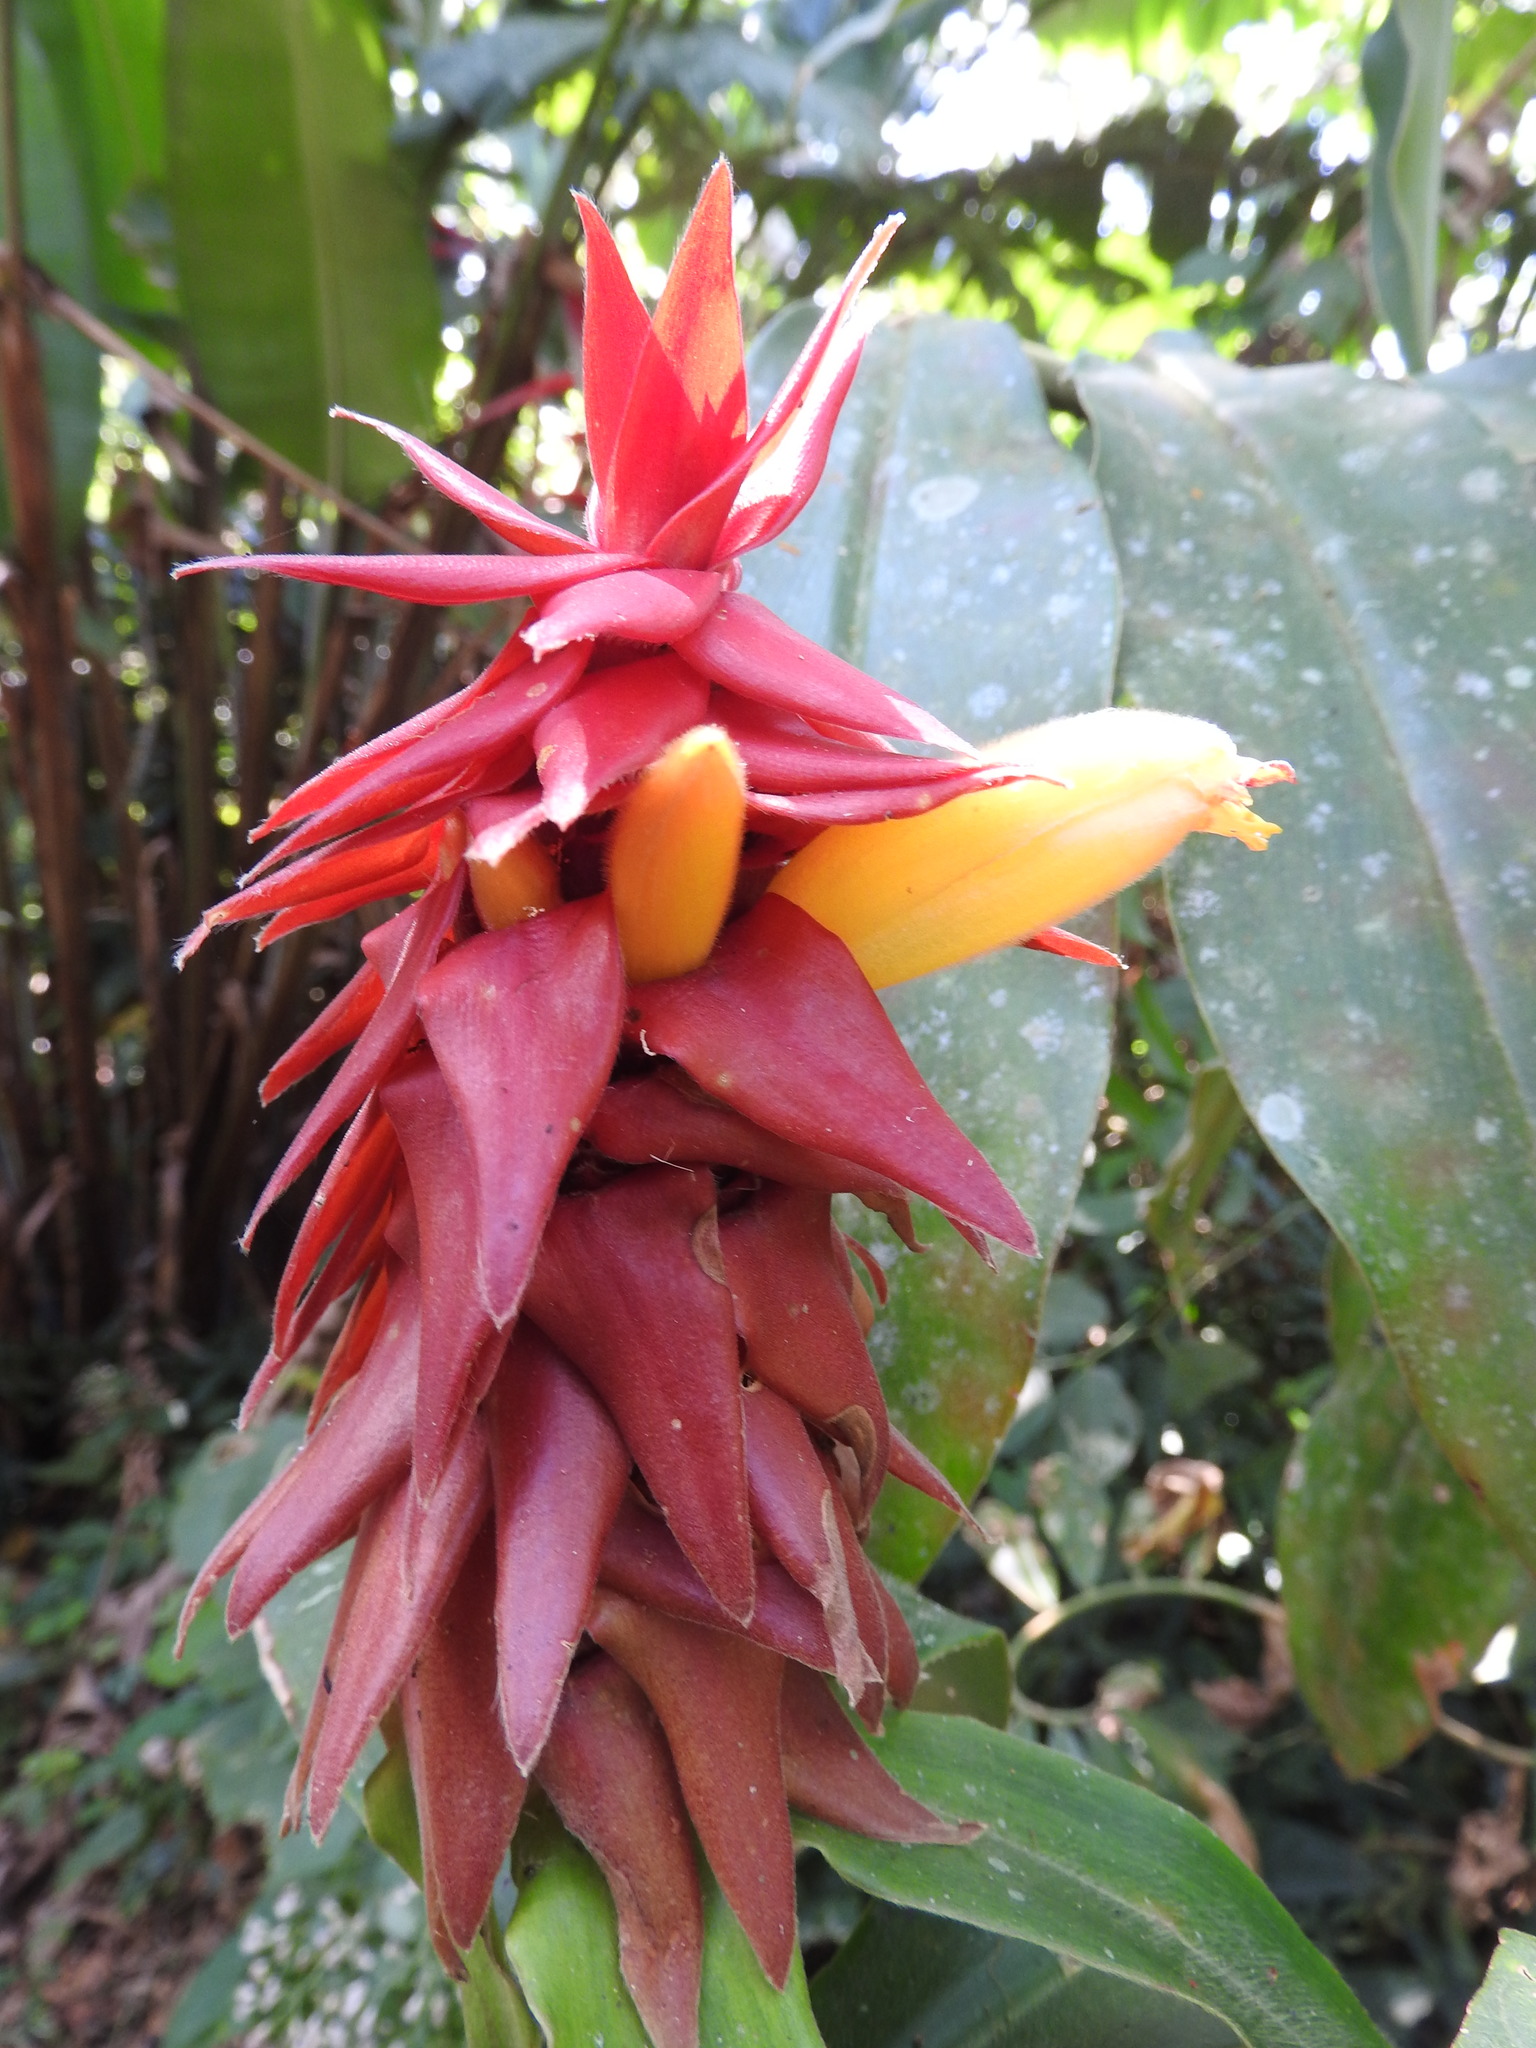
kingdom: Plantae
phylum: Tracheophyta
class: Liliopsida
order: Zingiberales
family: Costaceae
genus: Costus
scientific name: Costus comosus
